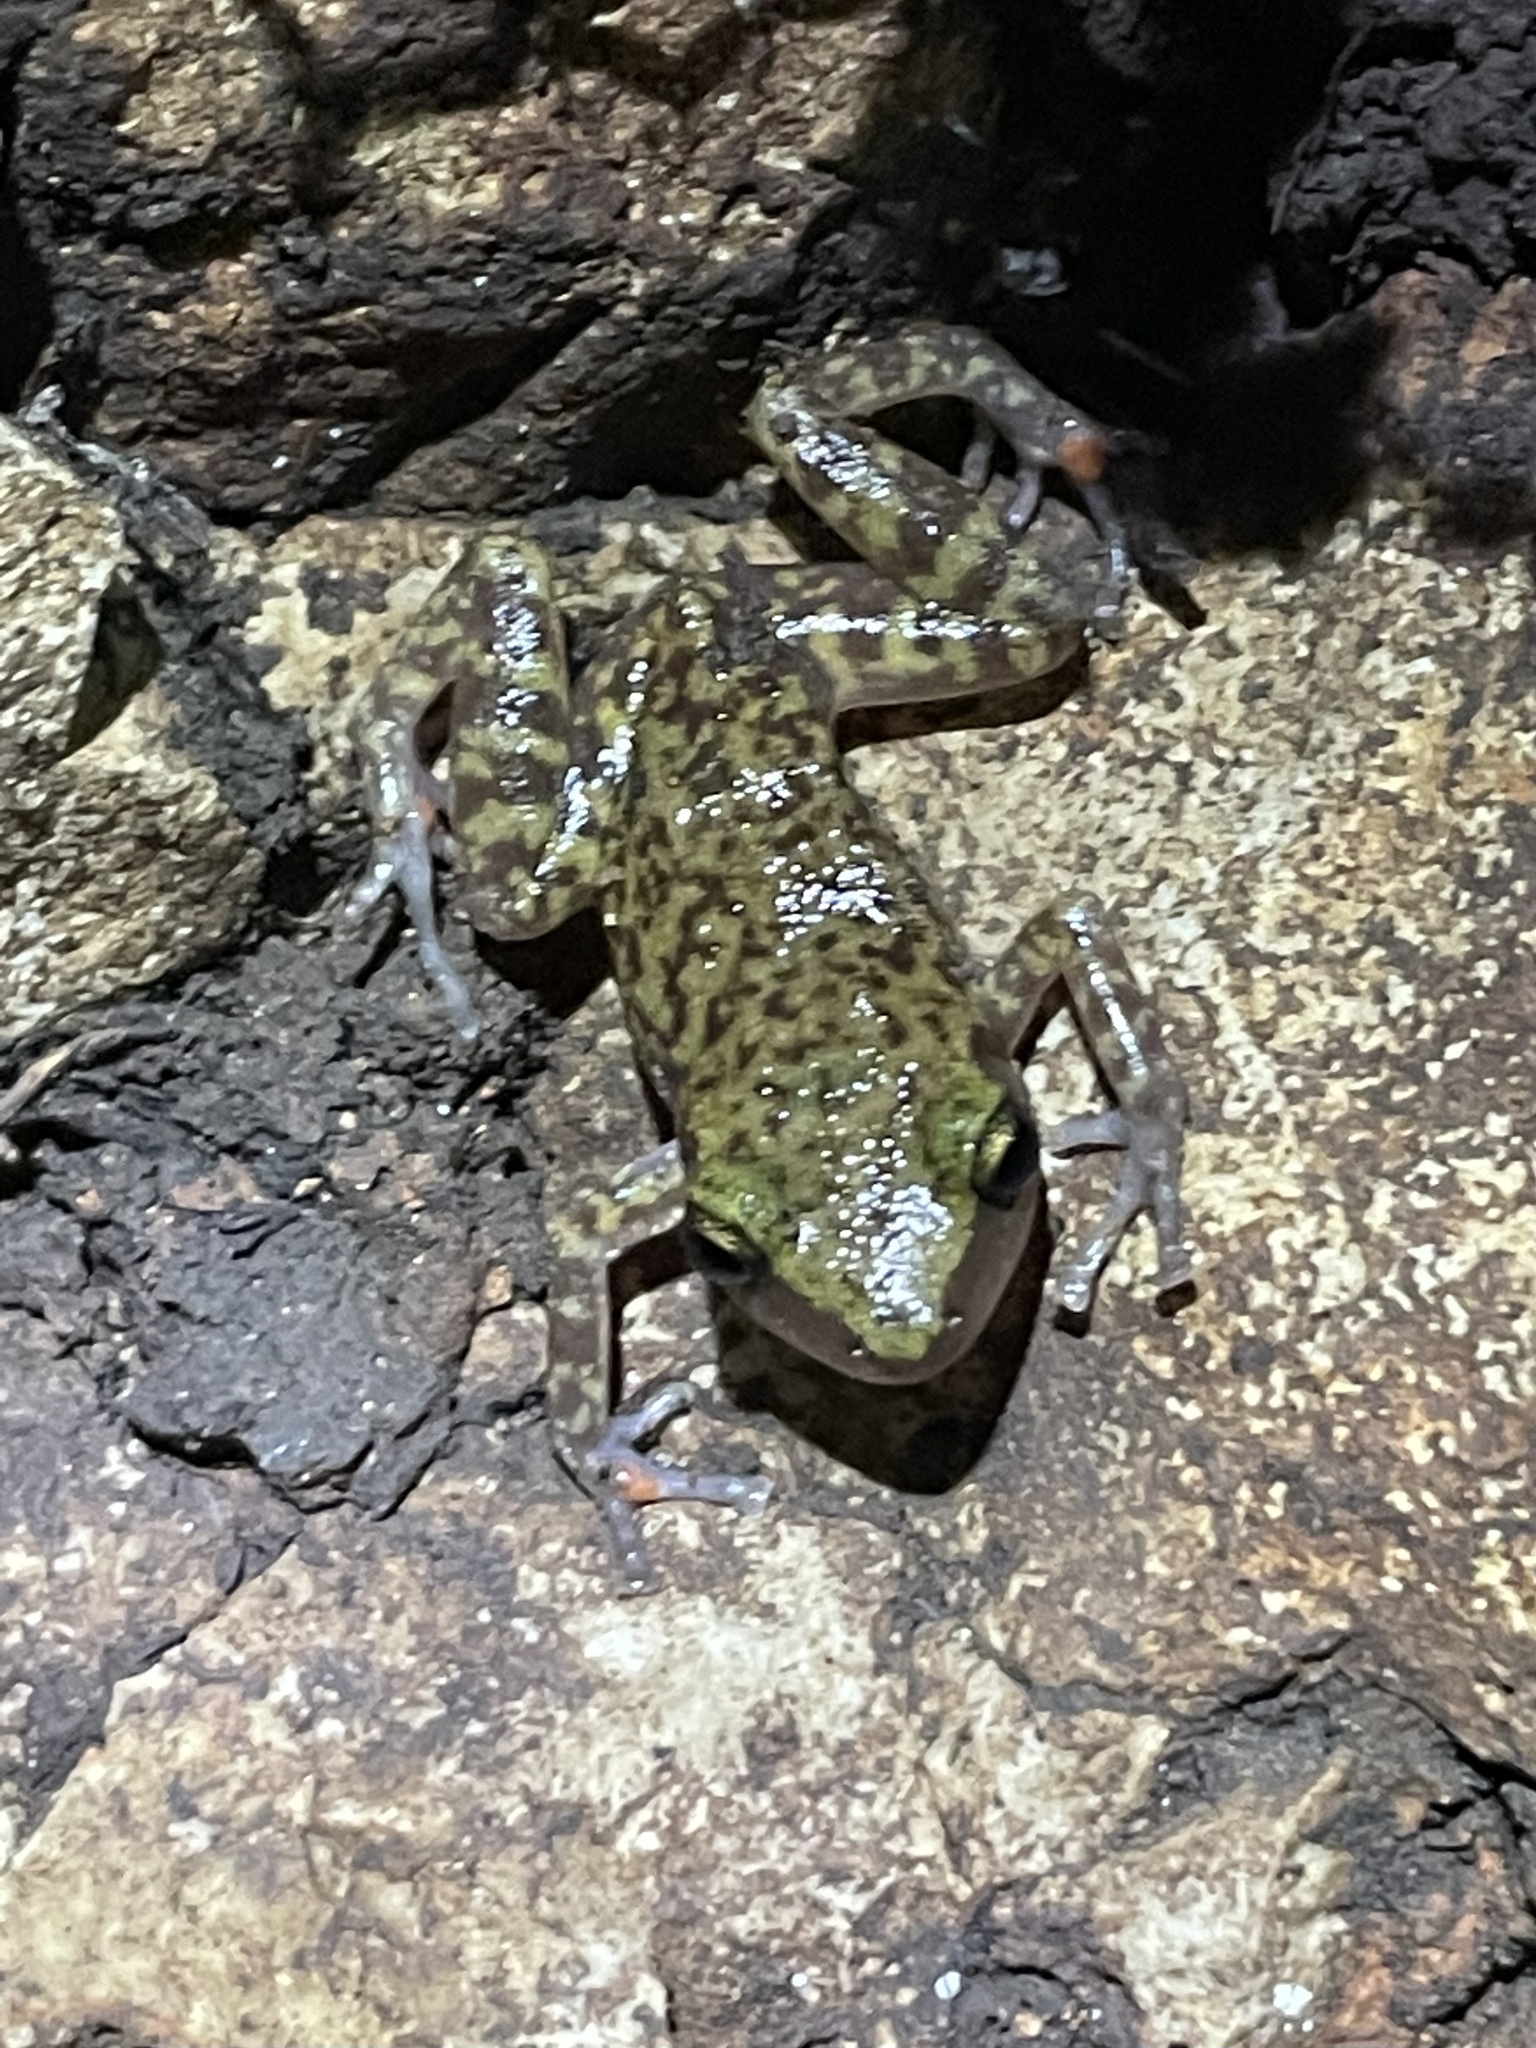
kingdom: Animalia
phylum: Chordata
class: Amphibia
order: Anura
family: Eleutherodactylidae
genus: Eleutherodactylus
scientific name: Eleutherodactylus marnockii
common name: Cliff chirping frog
